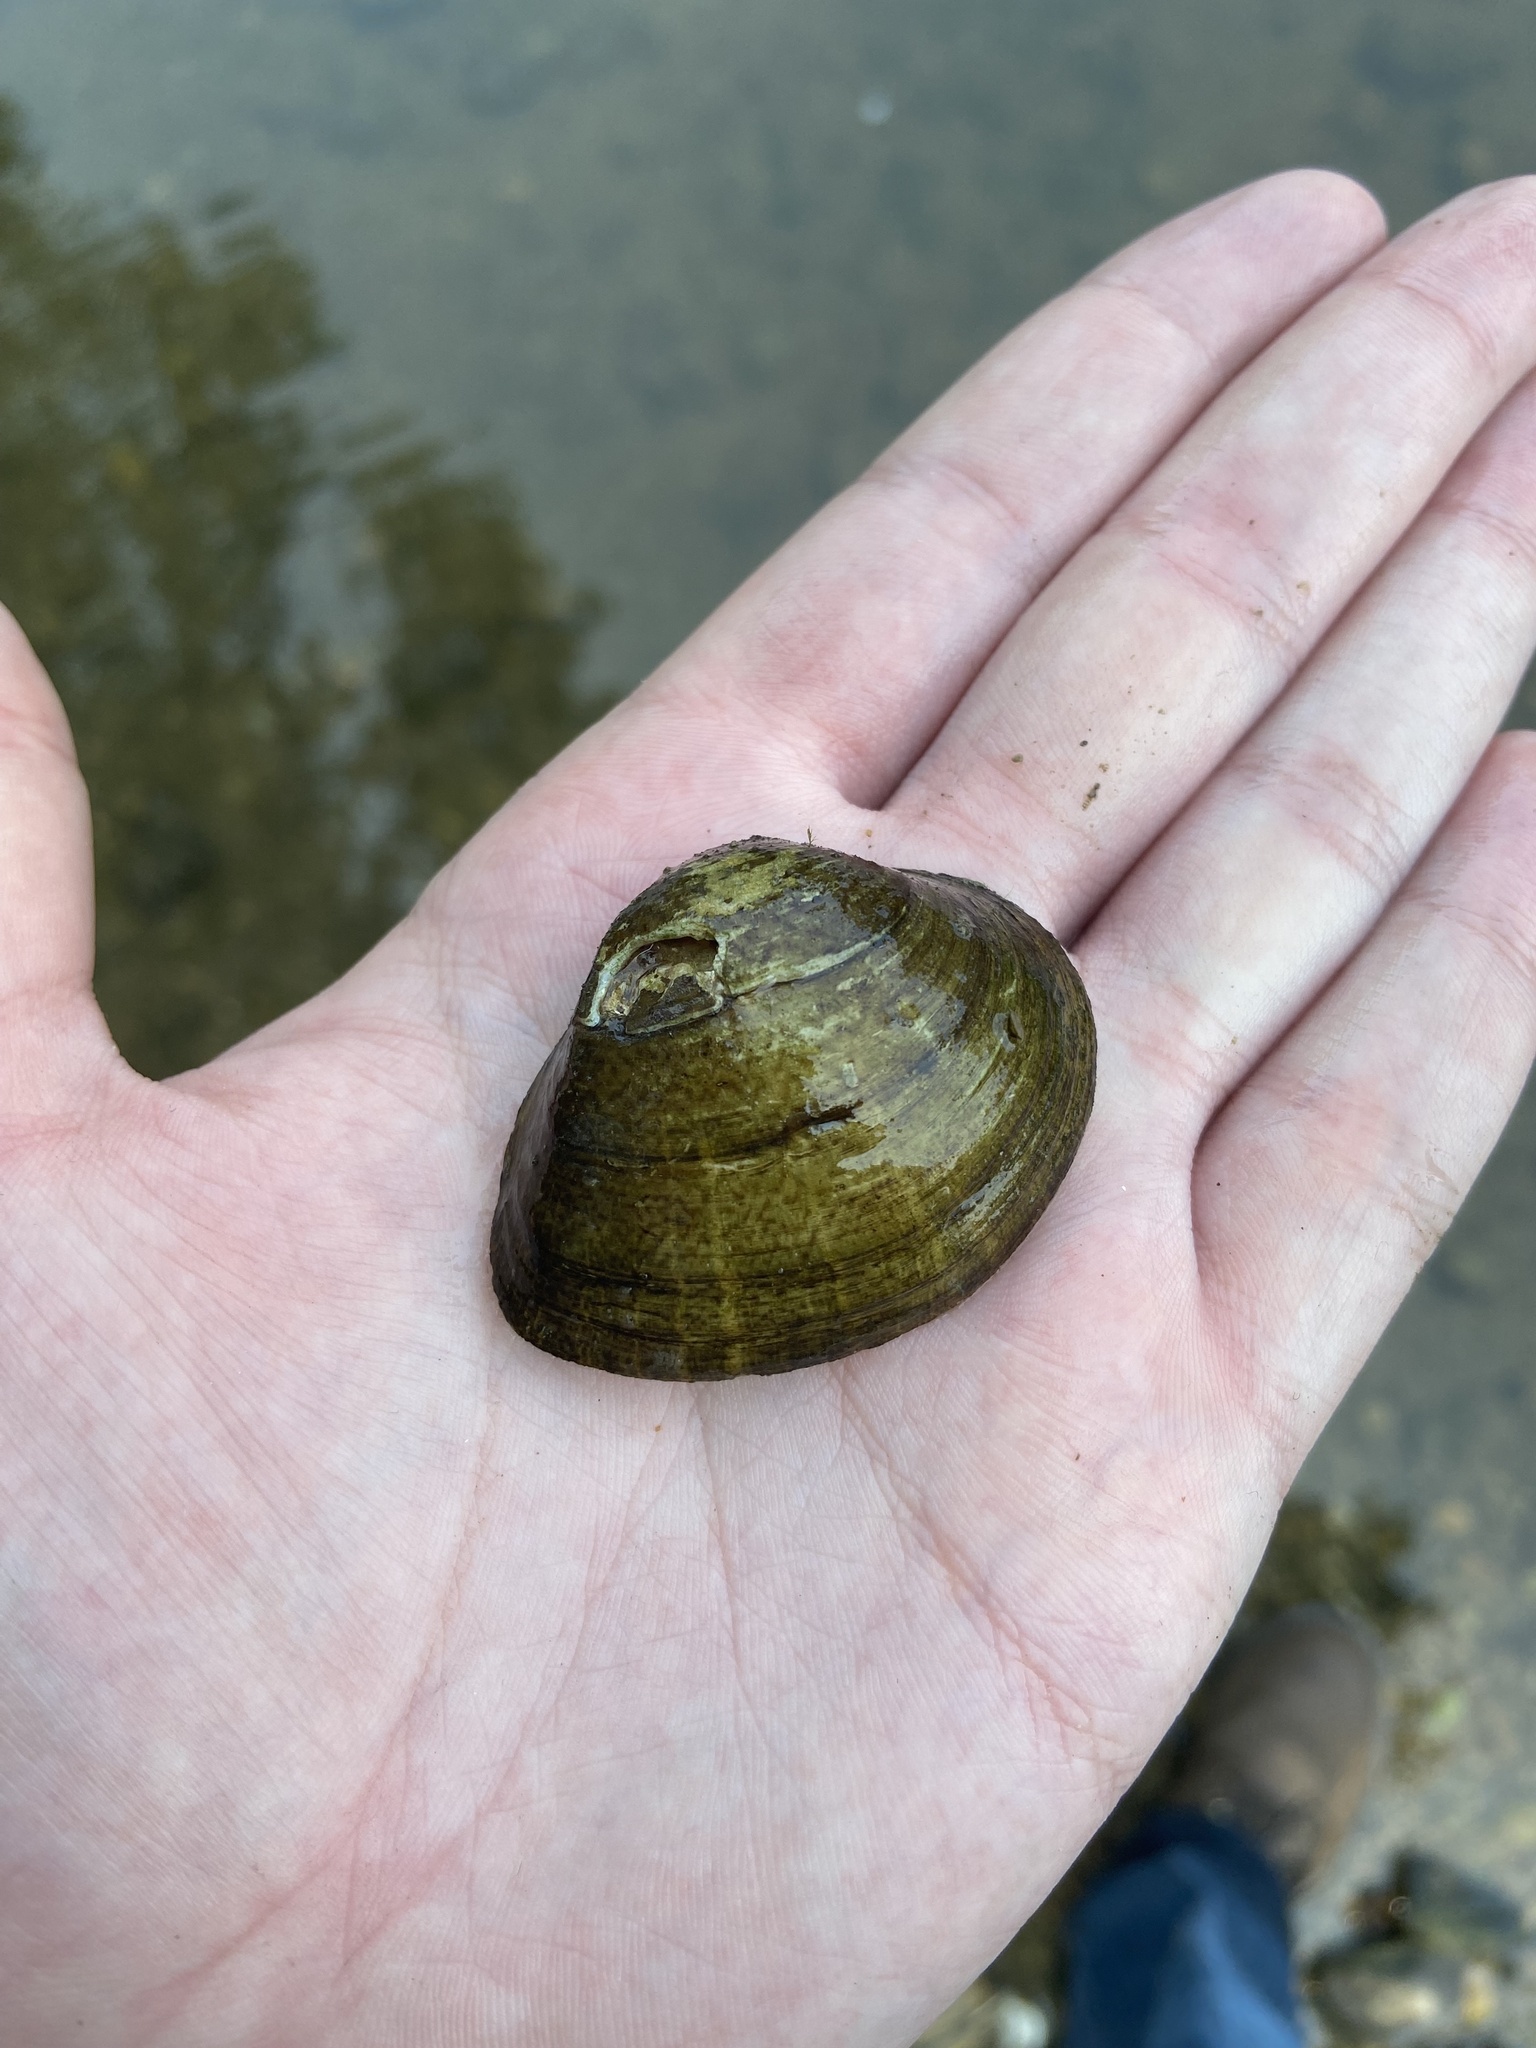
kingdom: Animalia
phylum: Mollusca
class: Bivalvia
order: Unionida
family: Unionidae
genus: Truncilla
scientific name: Truncilla truncata
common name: Deertoe
